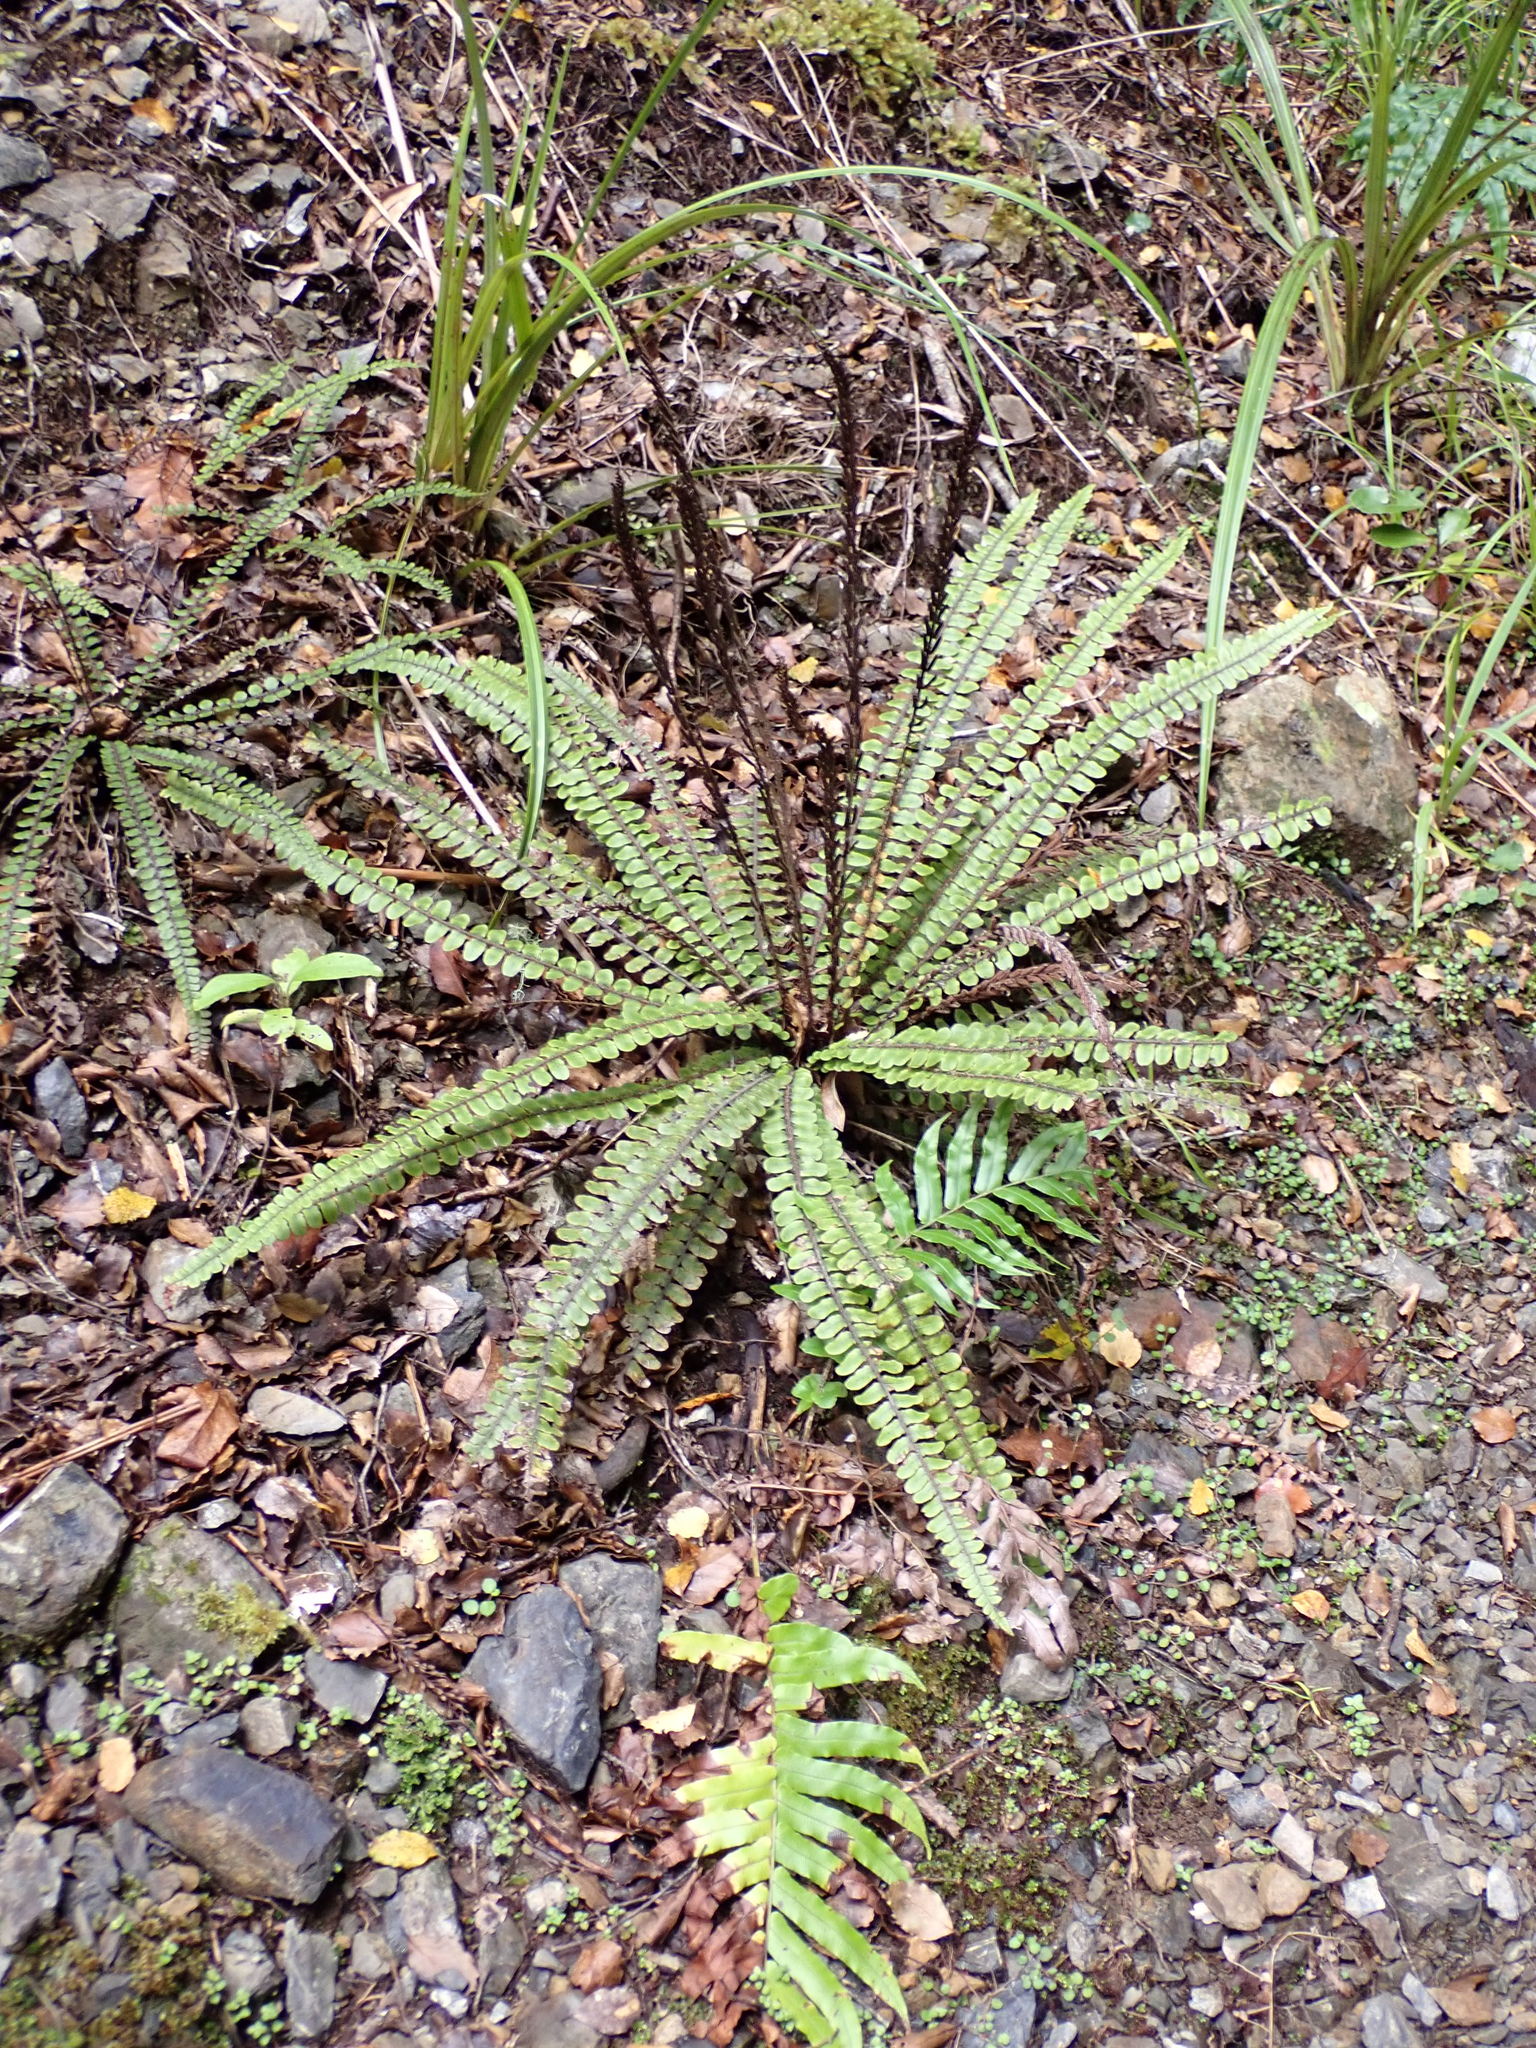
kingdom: Plantae
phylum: Tracheophyta
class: Polypodiopsida
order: Polypodiales
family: Blechnaceae
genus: Cranfillia
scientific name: Cranfillia fluviatilis
